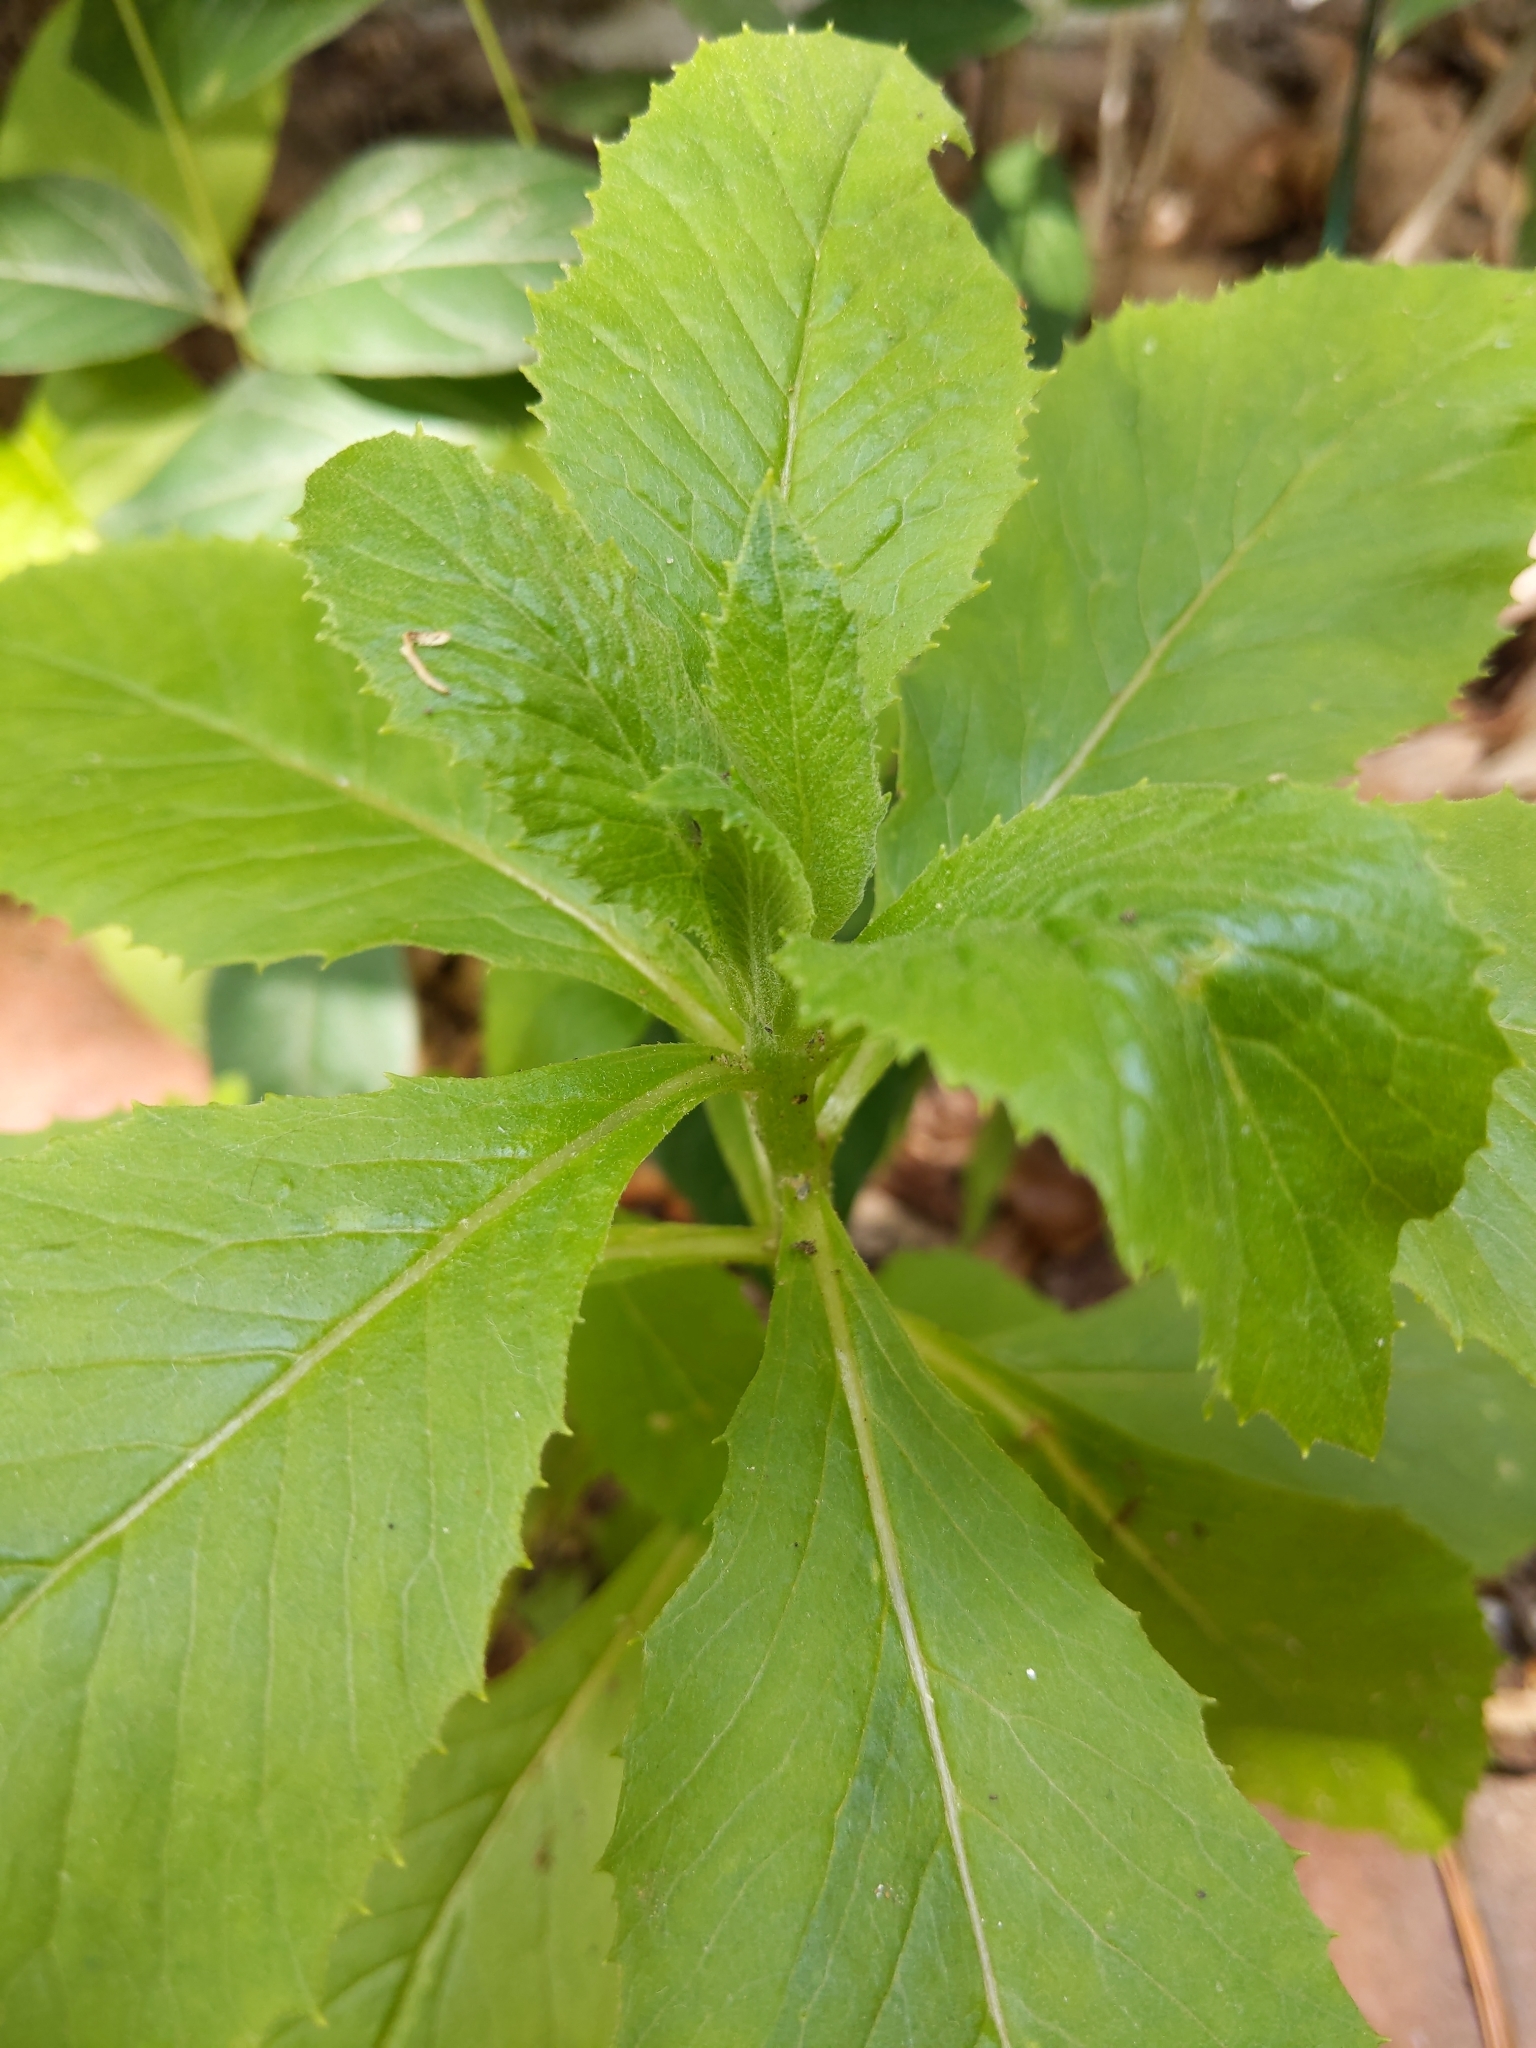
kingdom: Plantae
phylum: Tracheophyta
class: Magnoliopsida
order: Asterales
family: Asteraceae
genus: Erechtites
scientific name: Erechtites hieraciifolius
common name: American burnweed
